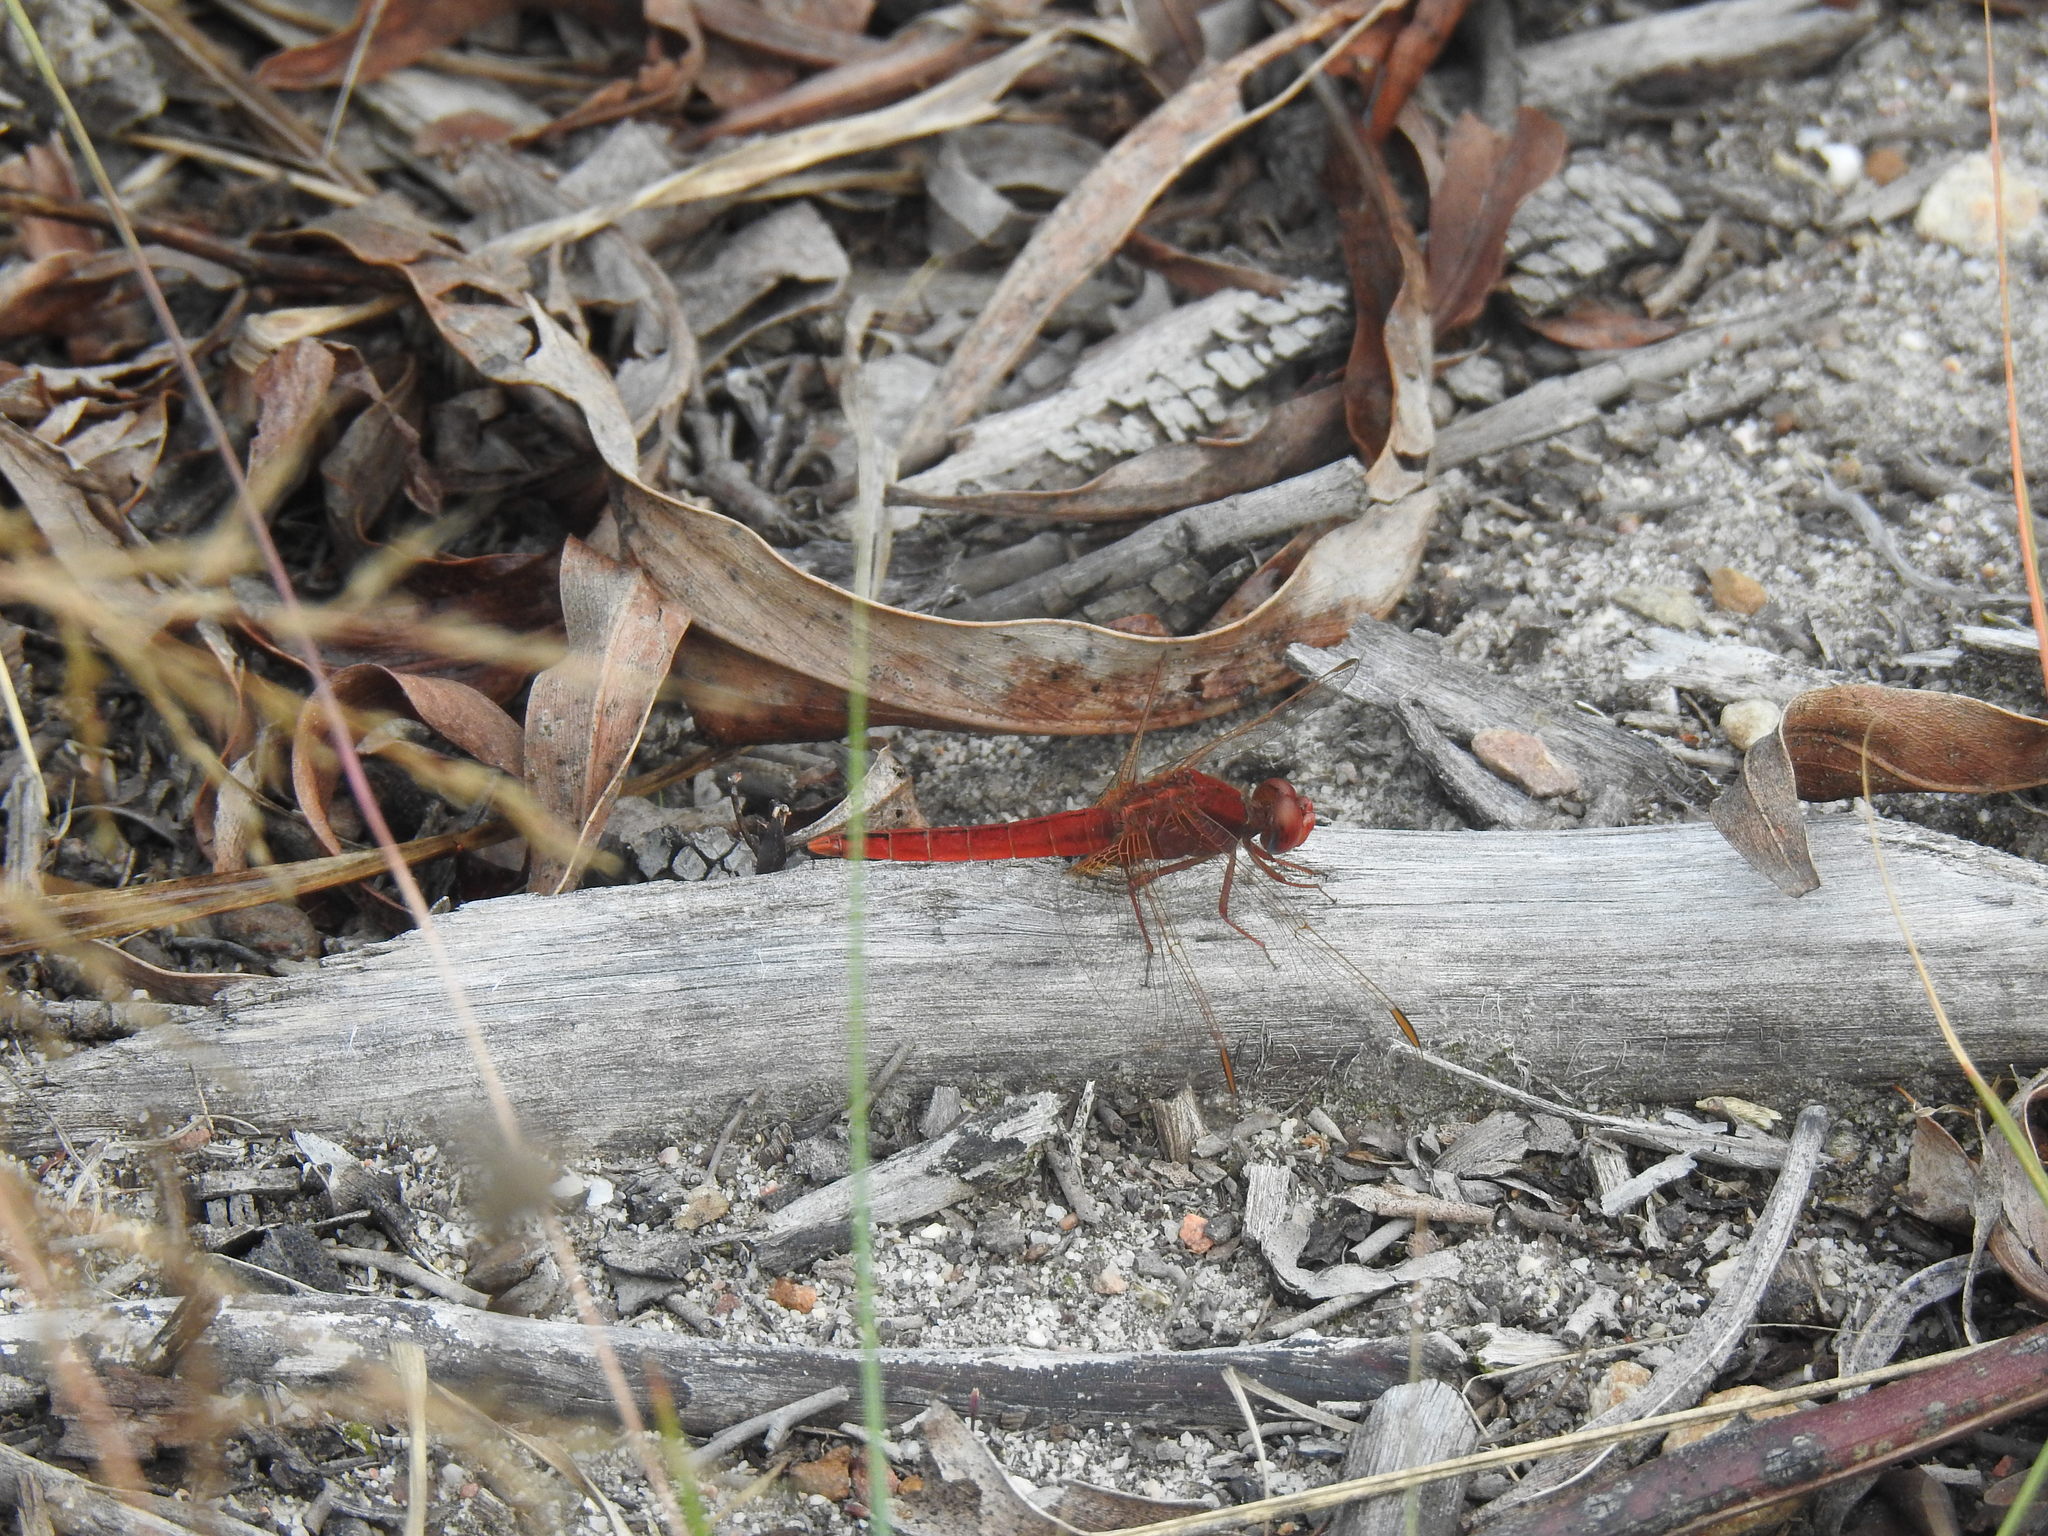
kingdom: Animalia
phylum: Arthropoda
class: Insecta
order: Odonata
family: Libellulidae
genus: Crocothemis
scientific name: Crocothemis erythraea
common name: Scarlet dragonfly
